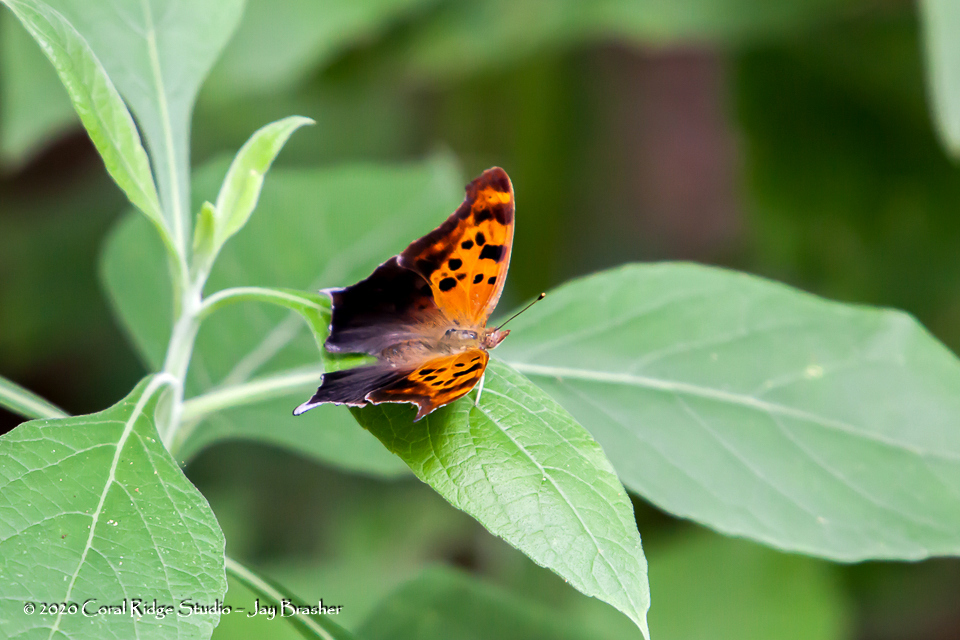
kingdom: Animalia
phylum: Arthropoda
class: Insecta
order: Lepidoptera
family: Nymphalidae
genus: Polygonia
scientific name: Polygonia interrogationis
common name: Question mark
